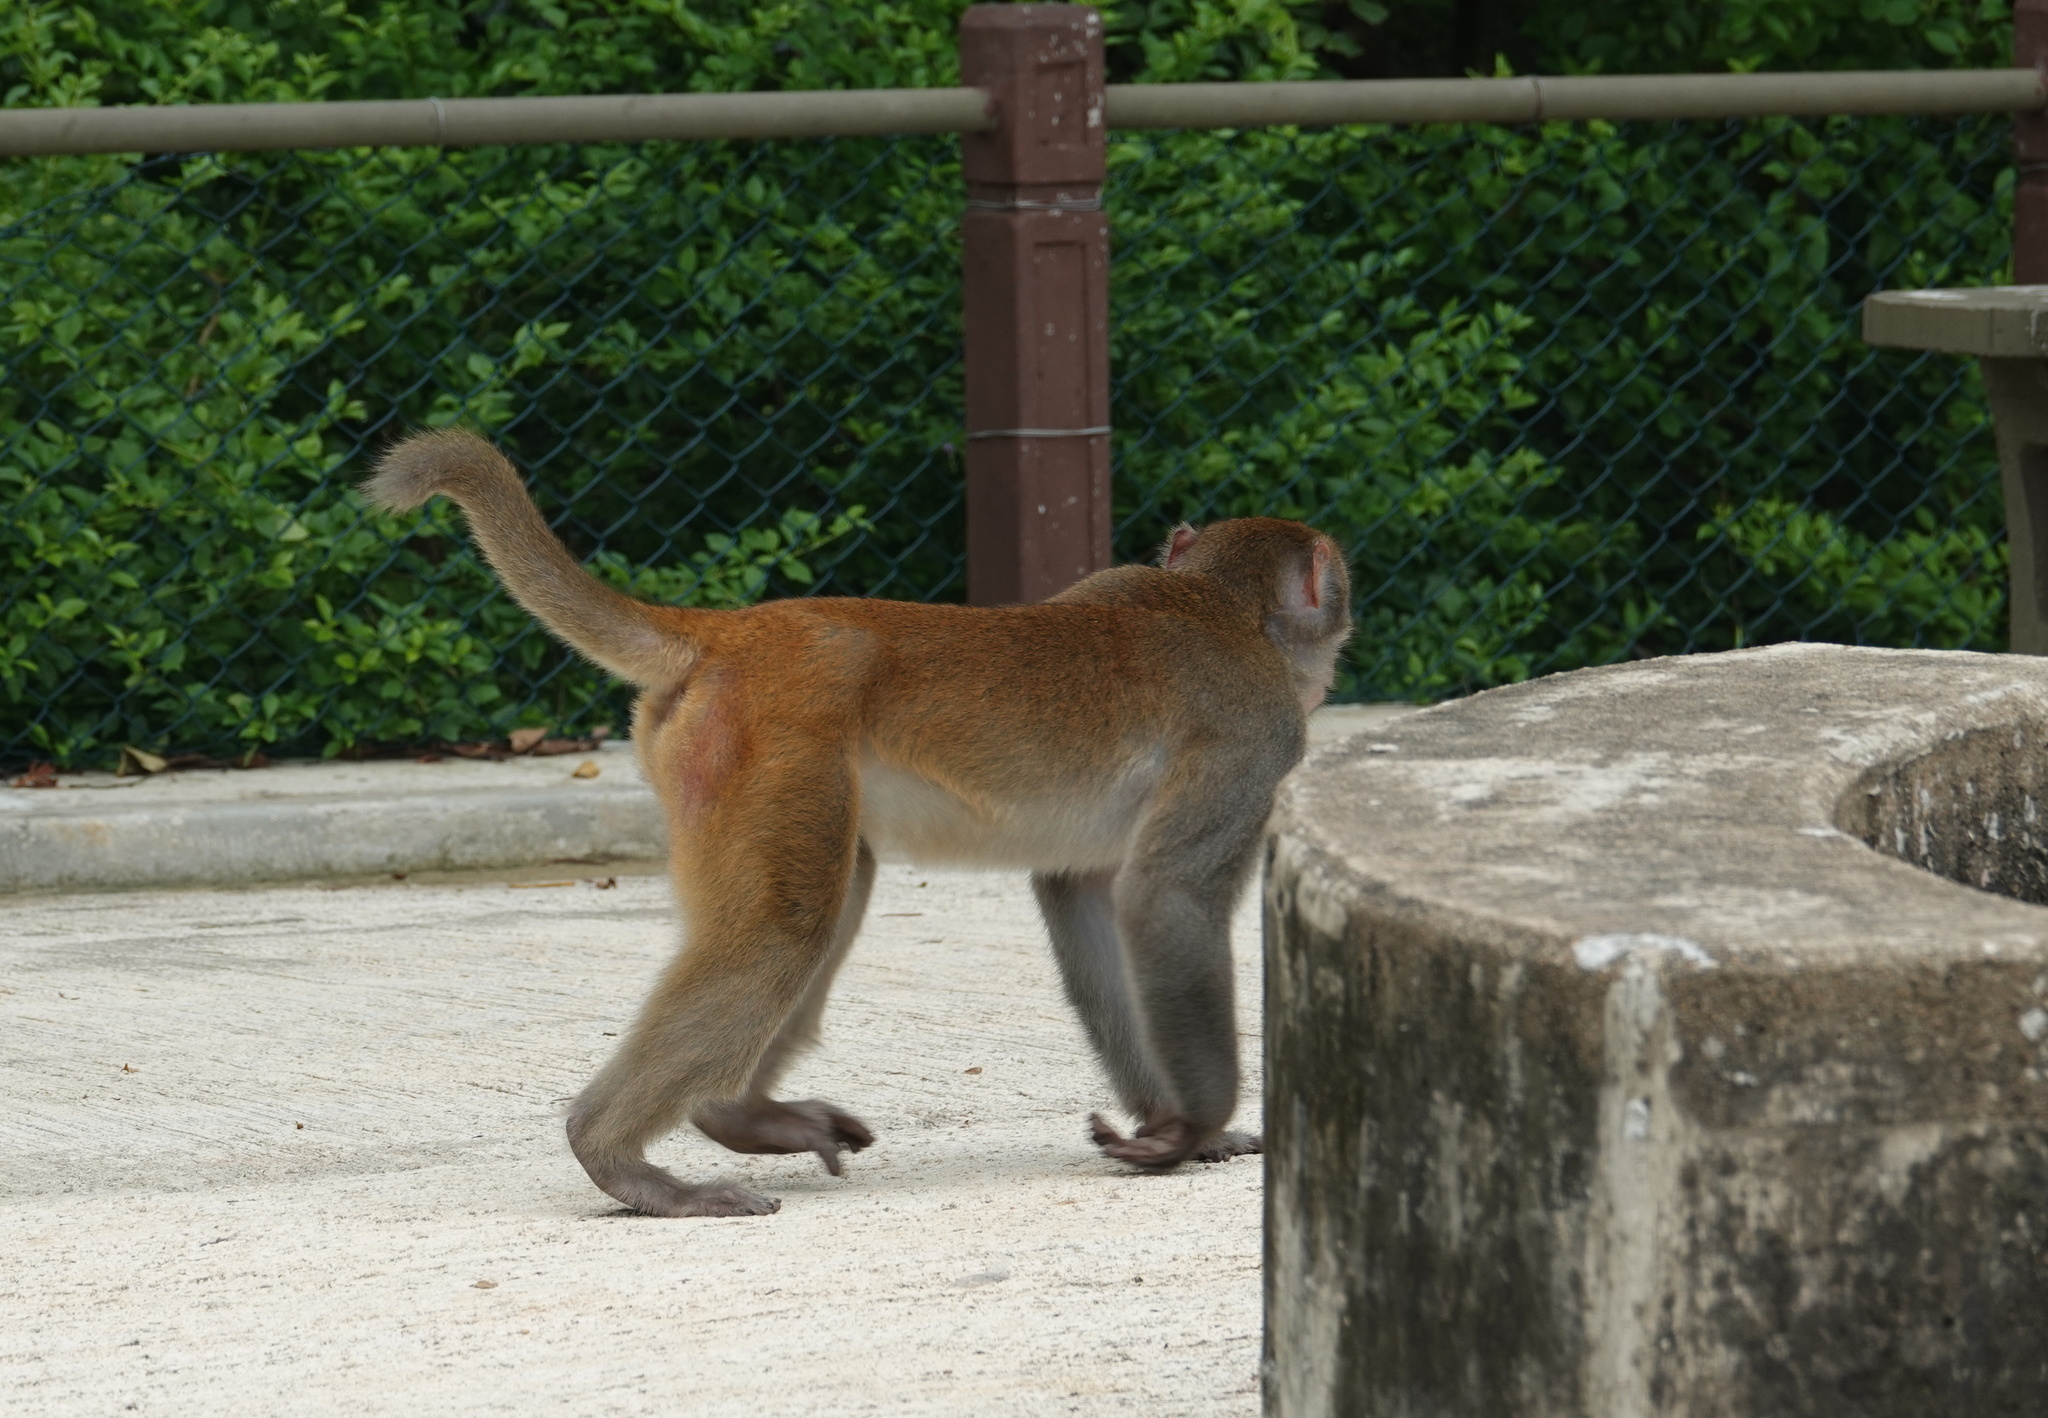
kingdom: Animalia
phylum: Chordata
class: Mammalia
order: Primates
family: Cercopithecidae
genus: Macaca
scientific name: Macaca mulatta
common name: Rhesus monkey
